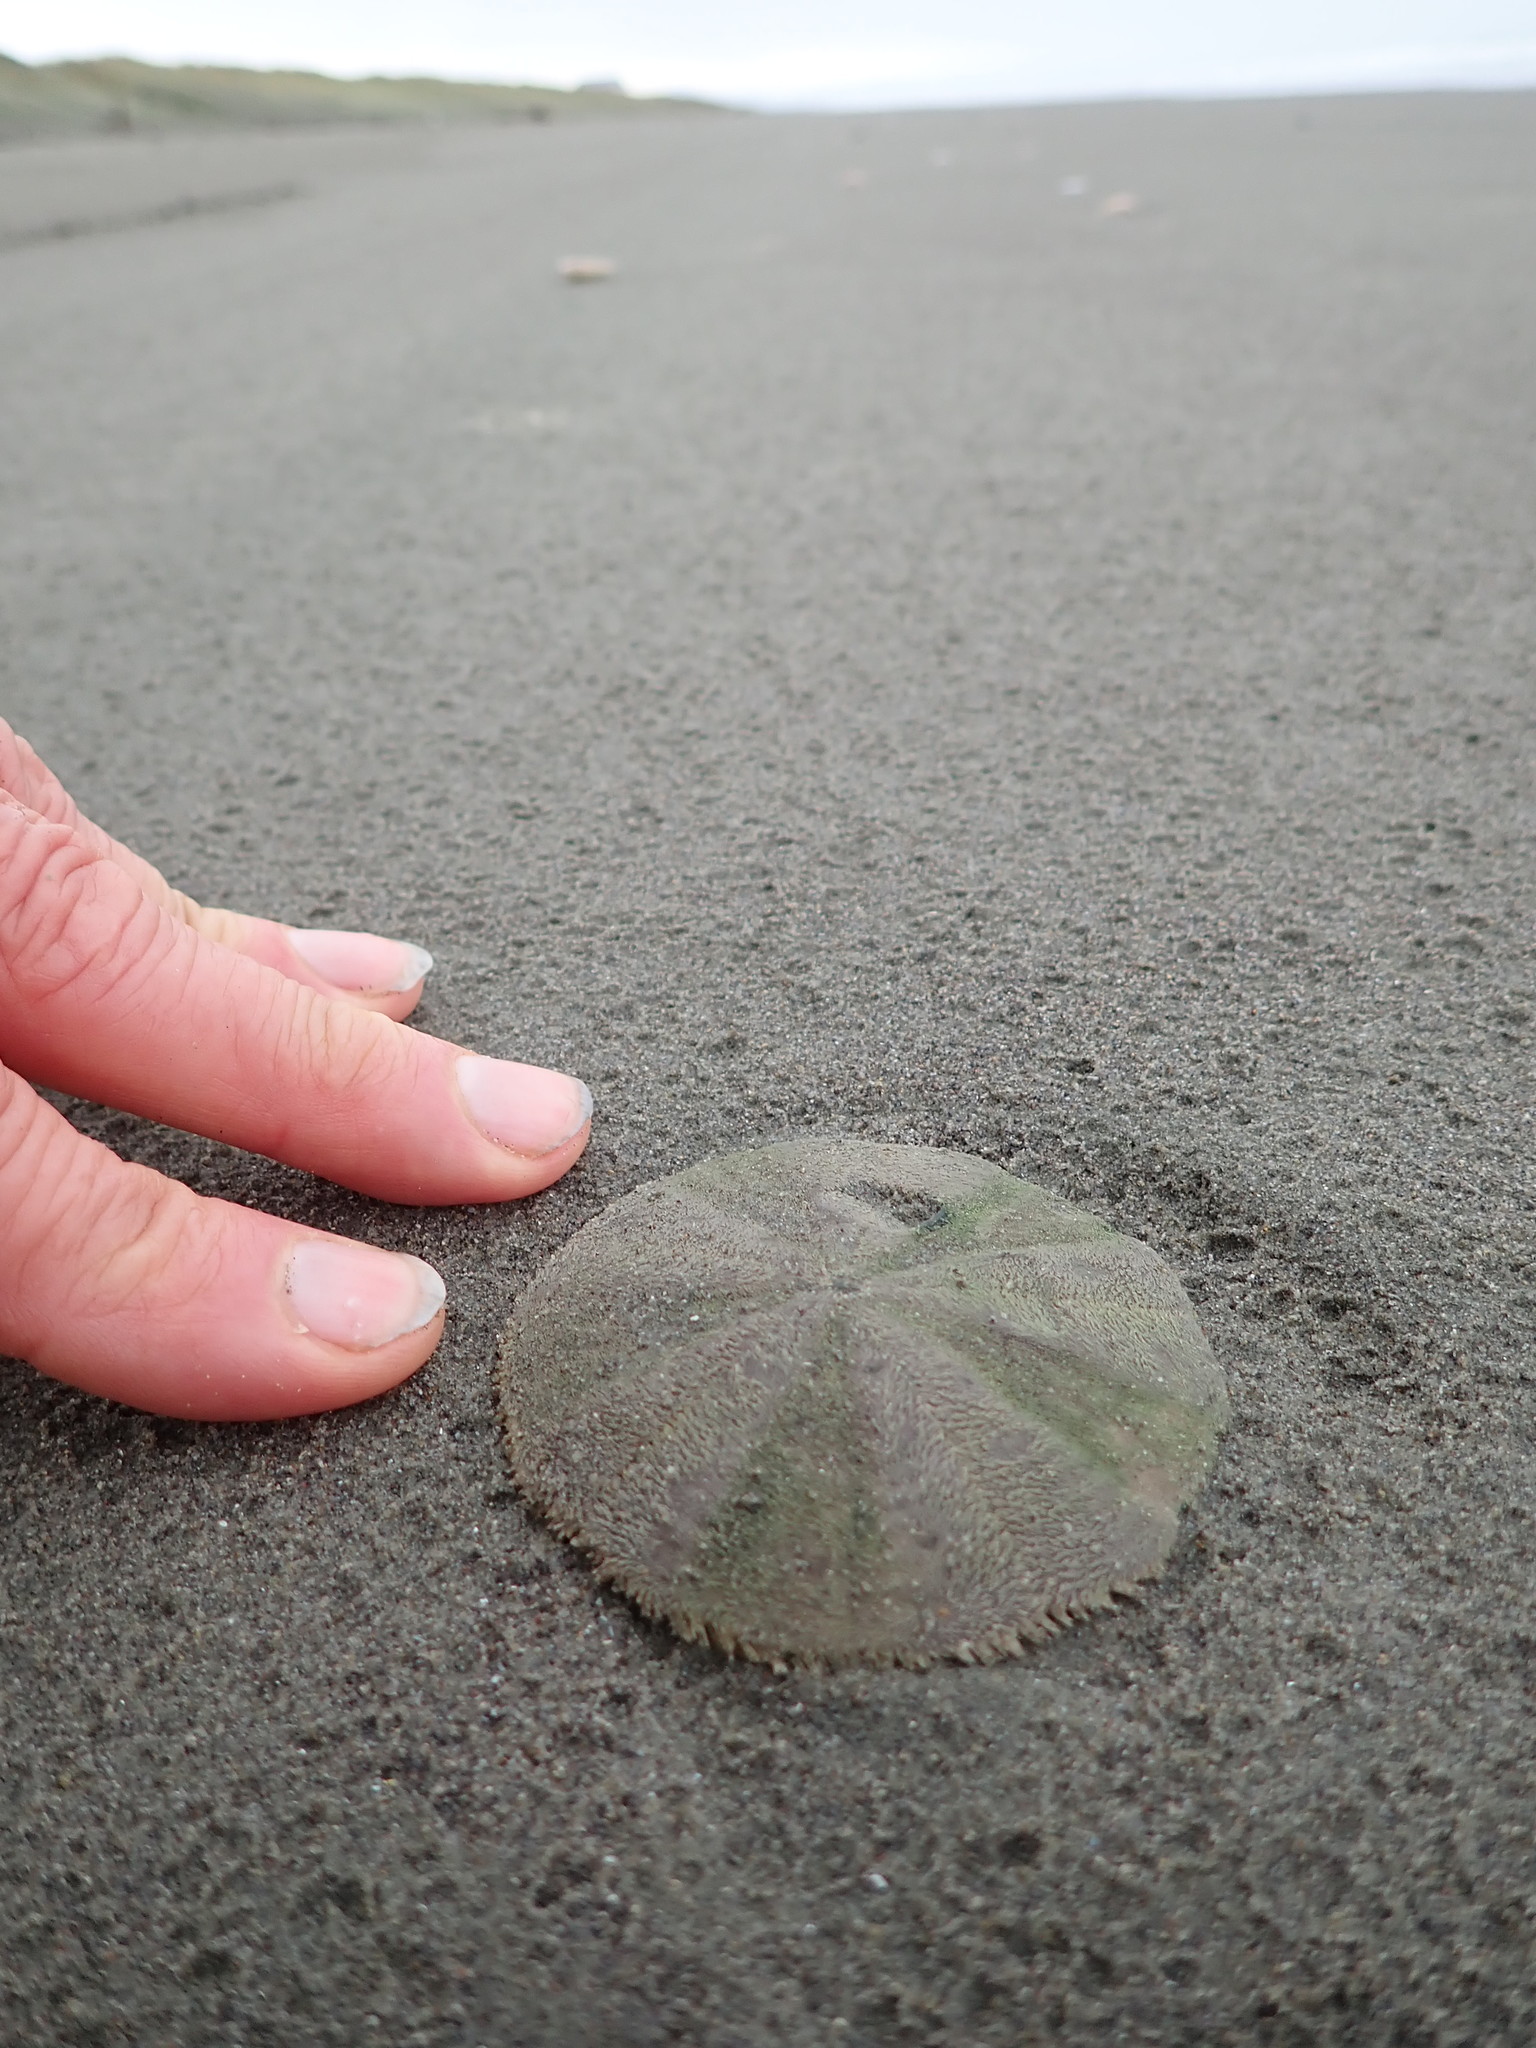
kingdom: Animalia
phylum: Echinodermata
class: Echinoidea
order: Clypeasteroida
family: Clypeasteridae
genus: Fellaster
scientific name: Fellaster zelandiae
